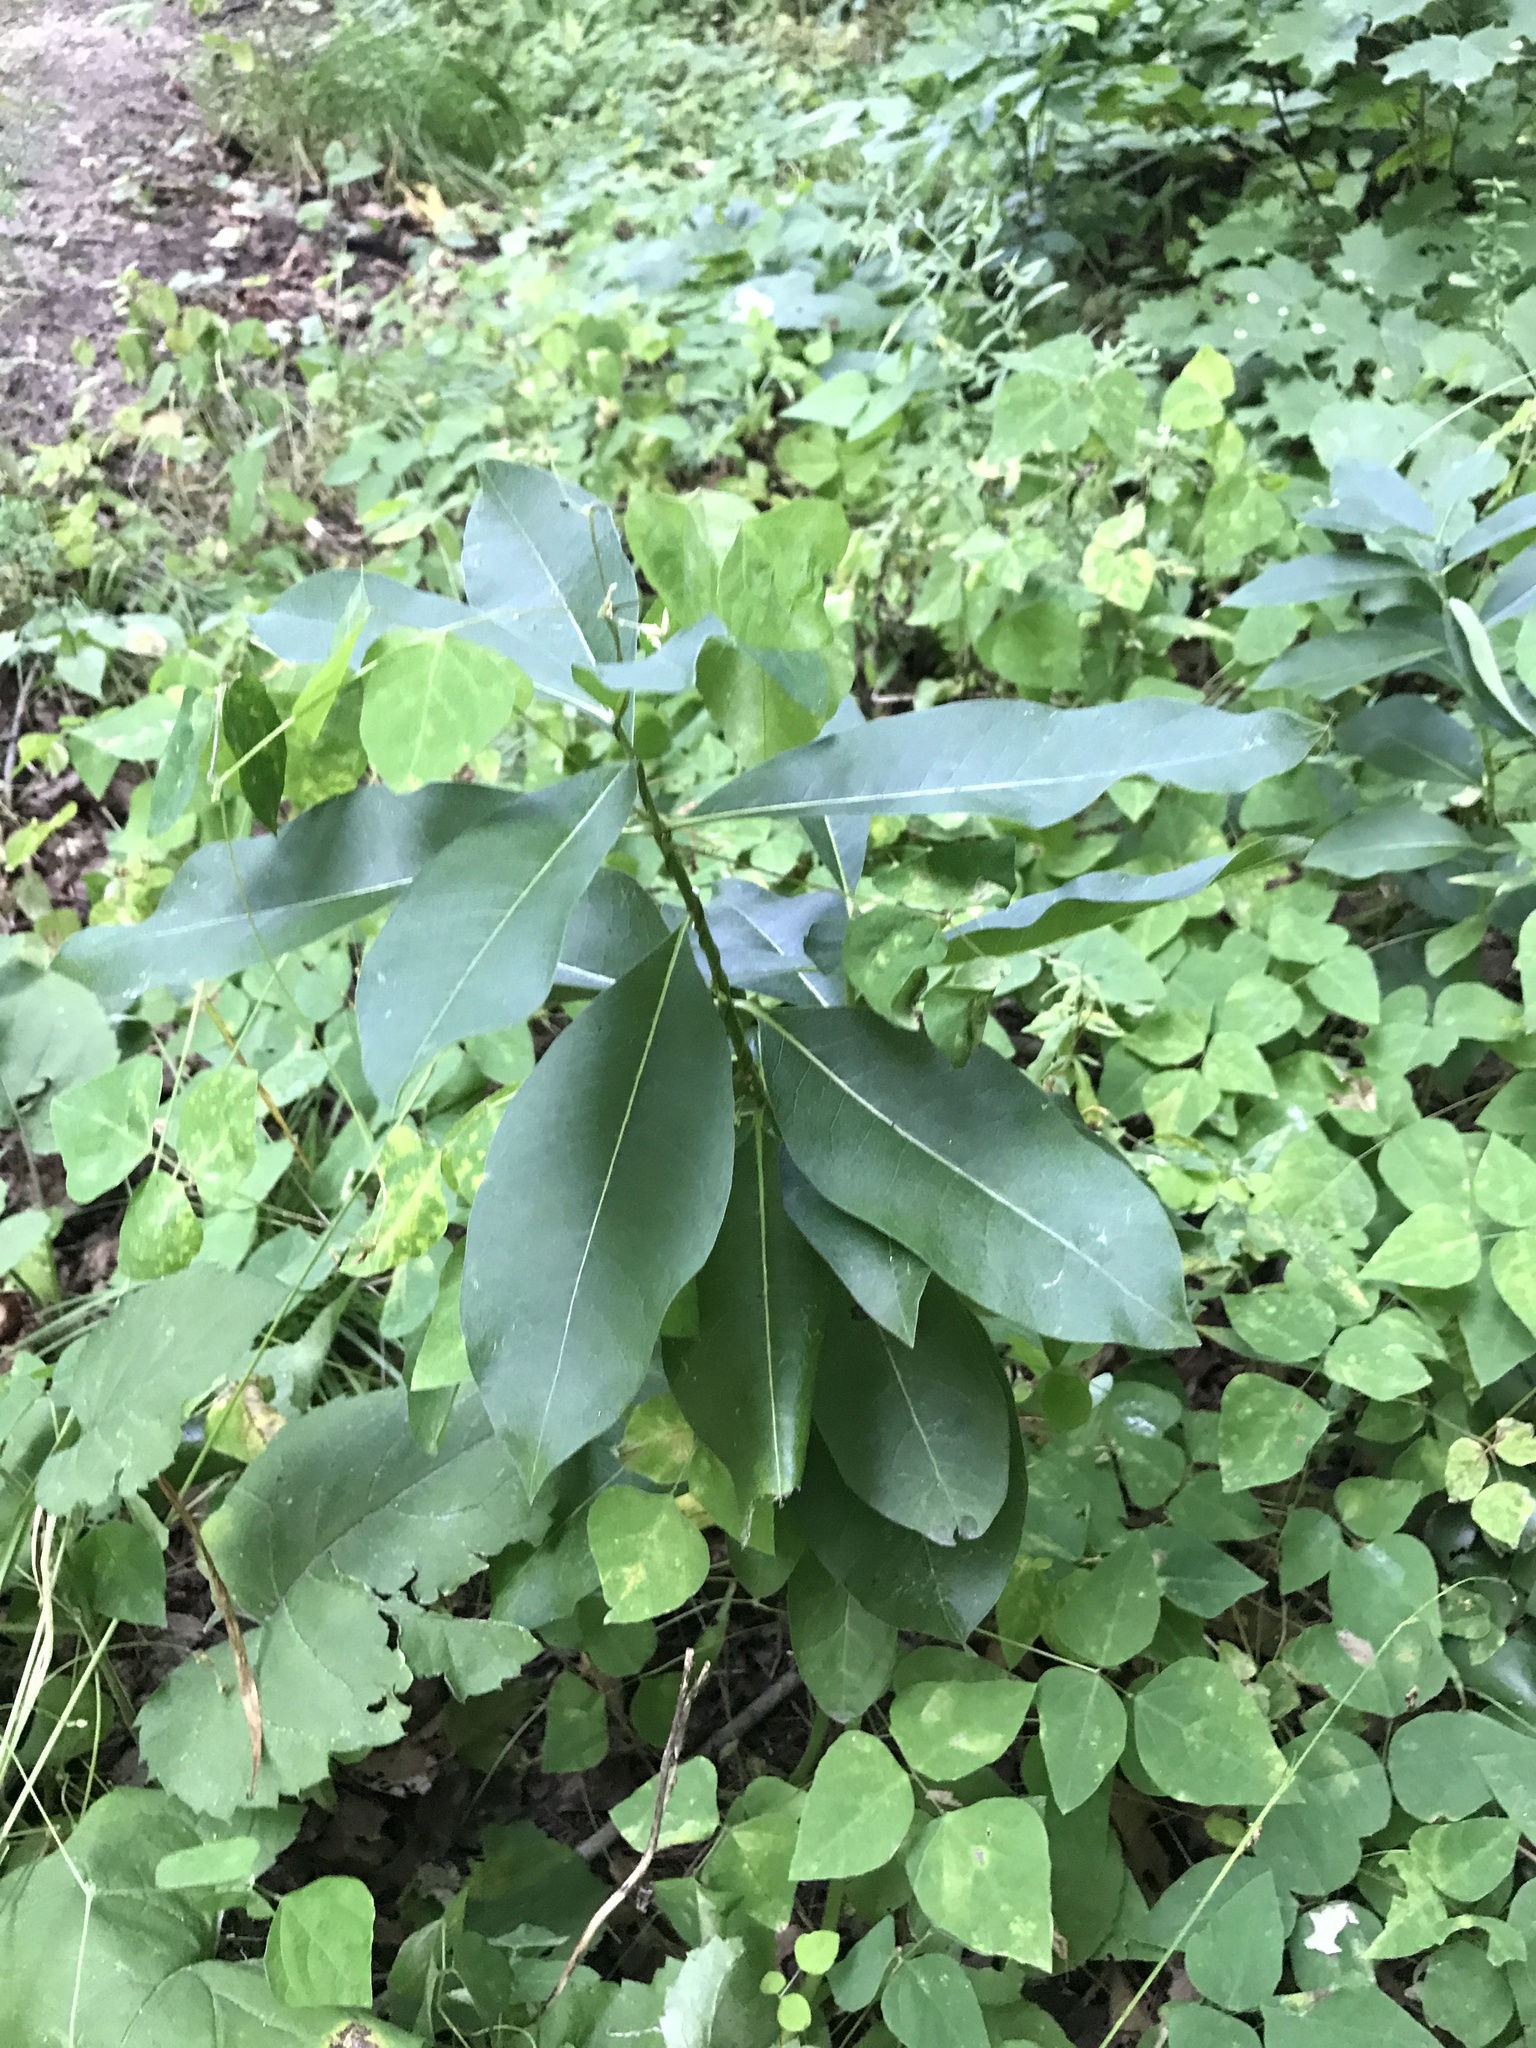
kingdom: Plantae
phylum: Tracheophyta
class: Magnoliopsida
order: Gentianales
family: Apocynaceae
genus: Asclepias
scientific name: Asclepias syriaca
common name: Common milkweed
